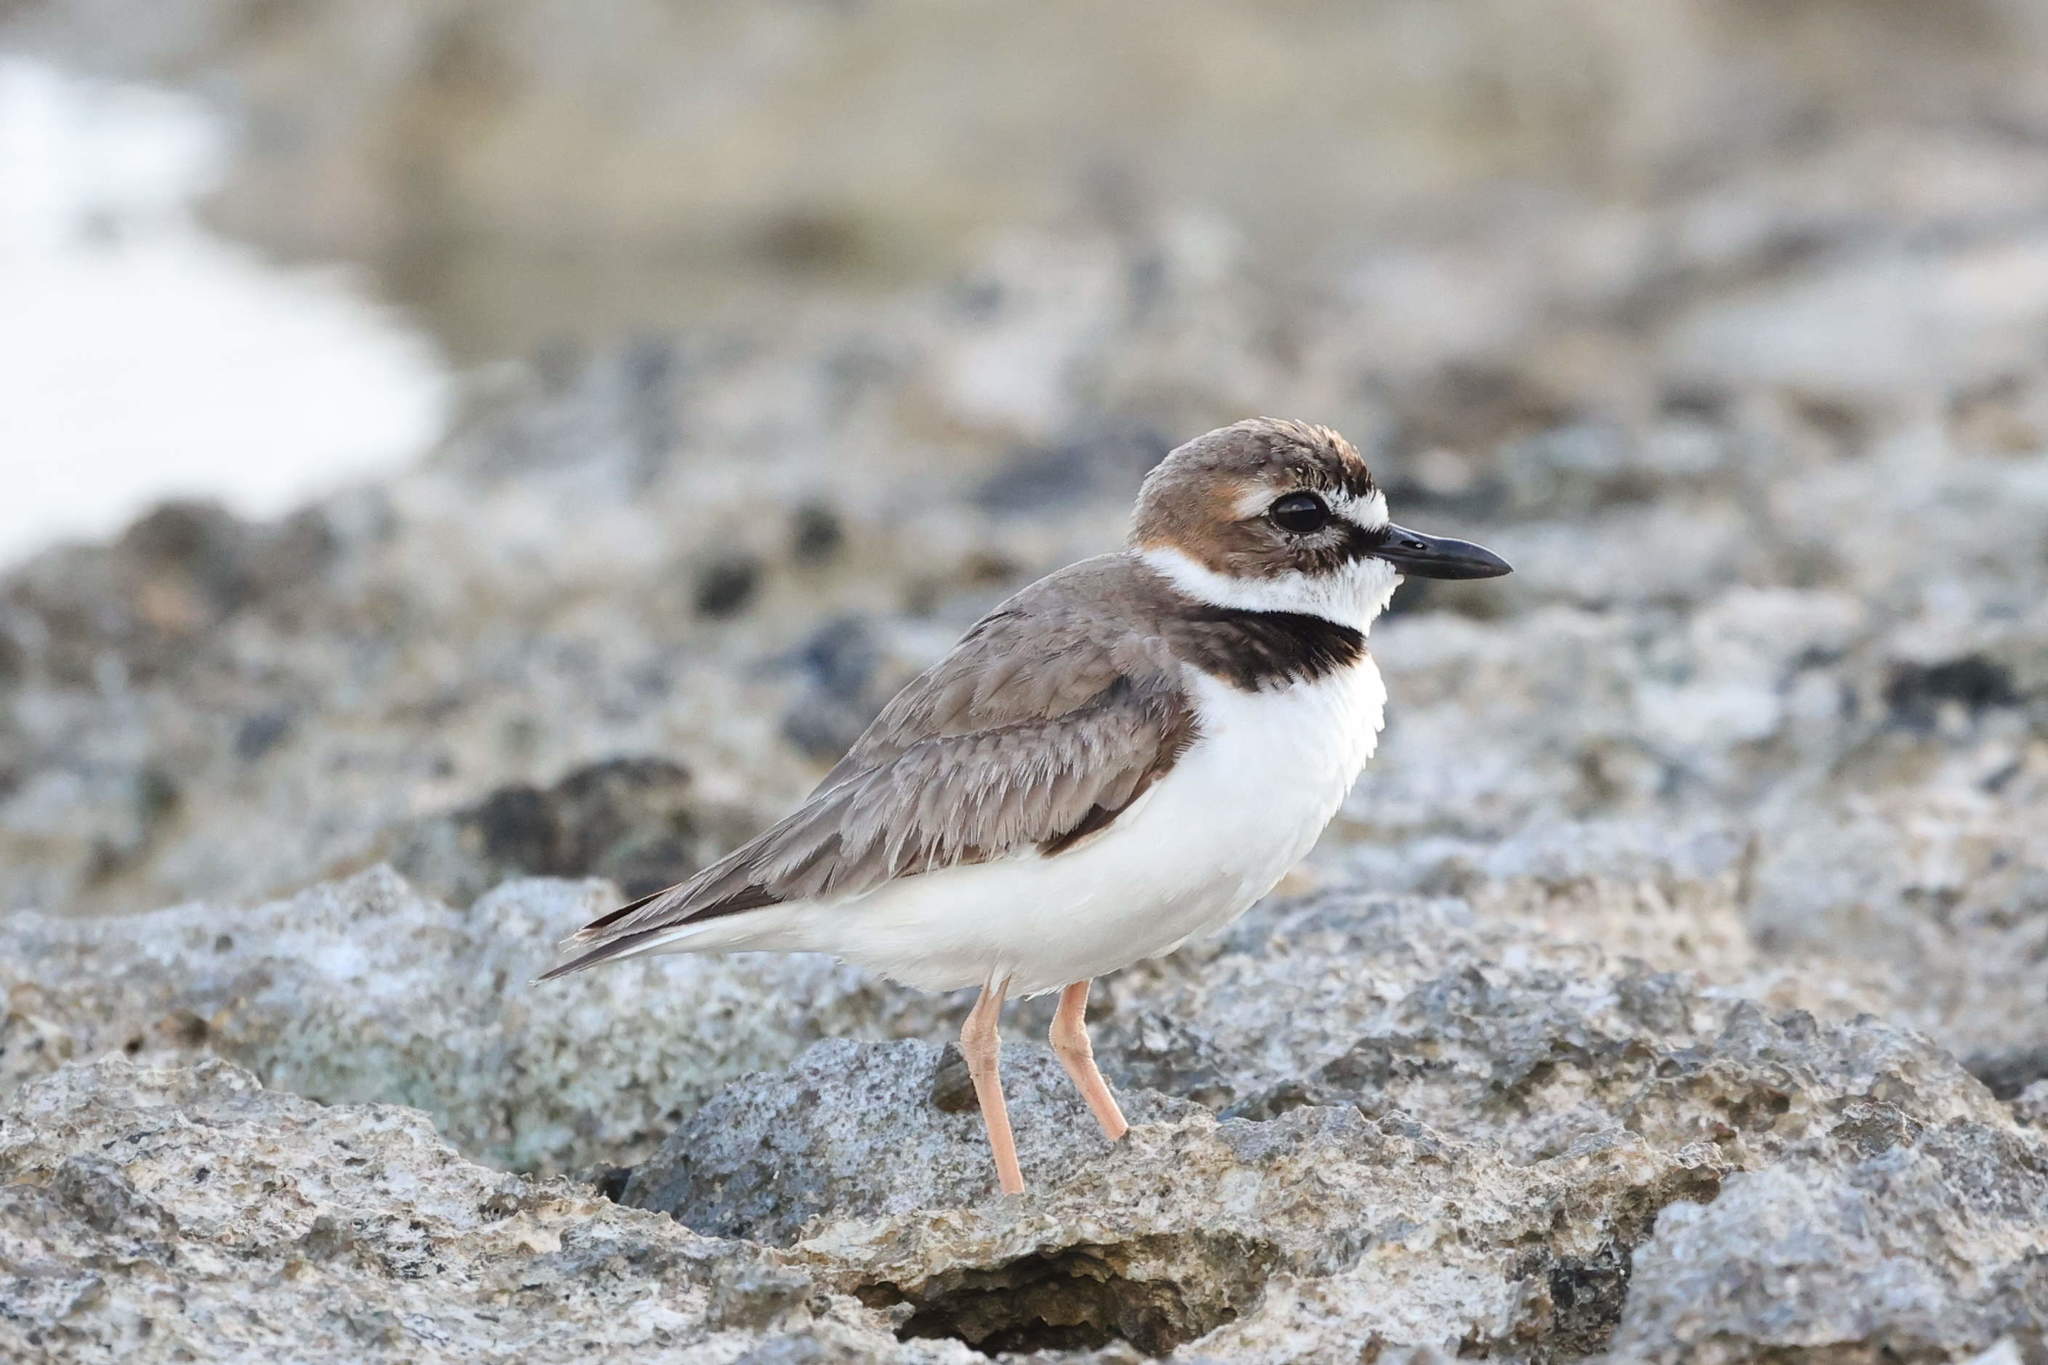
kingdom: Animalia
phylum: Chordata
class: Aves
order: Charadriiformes
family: Charadriidae
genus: Anarhynchus
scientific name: Anarhynchus
